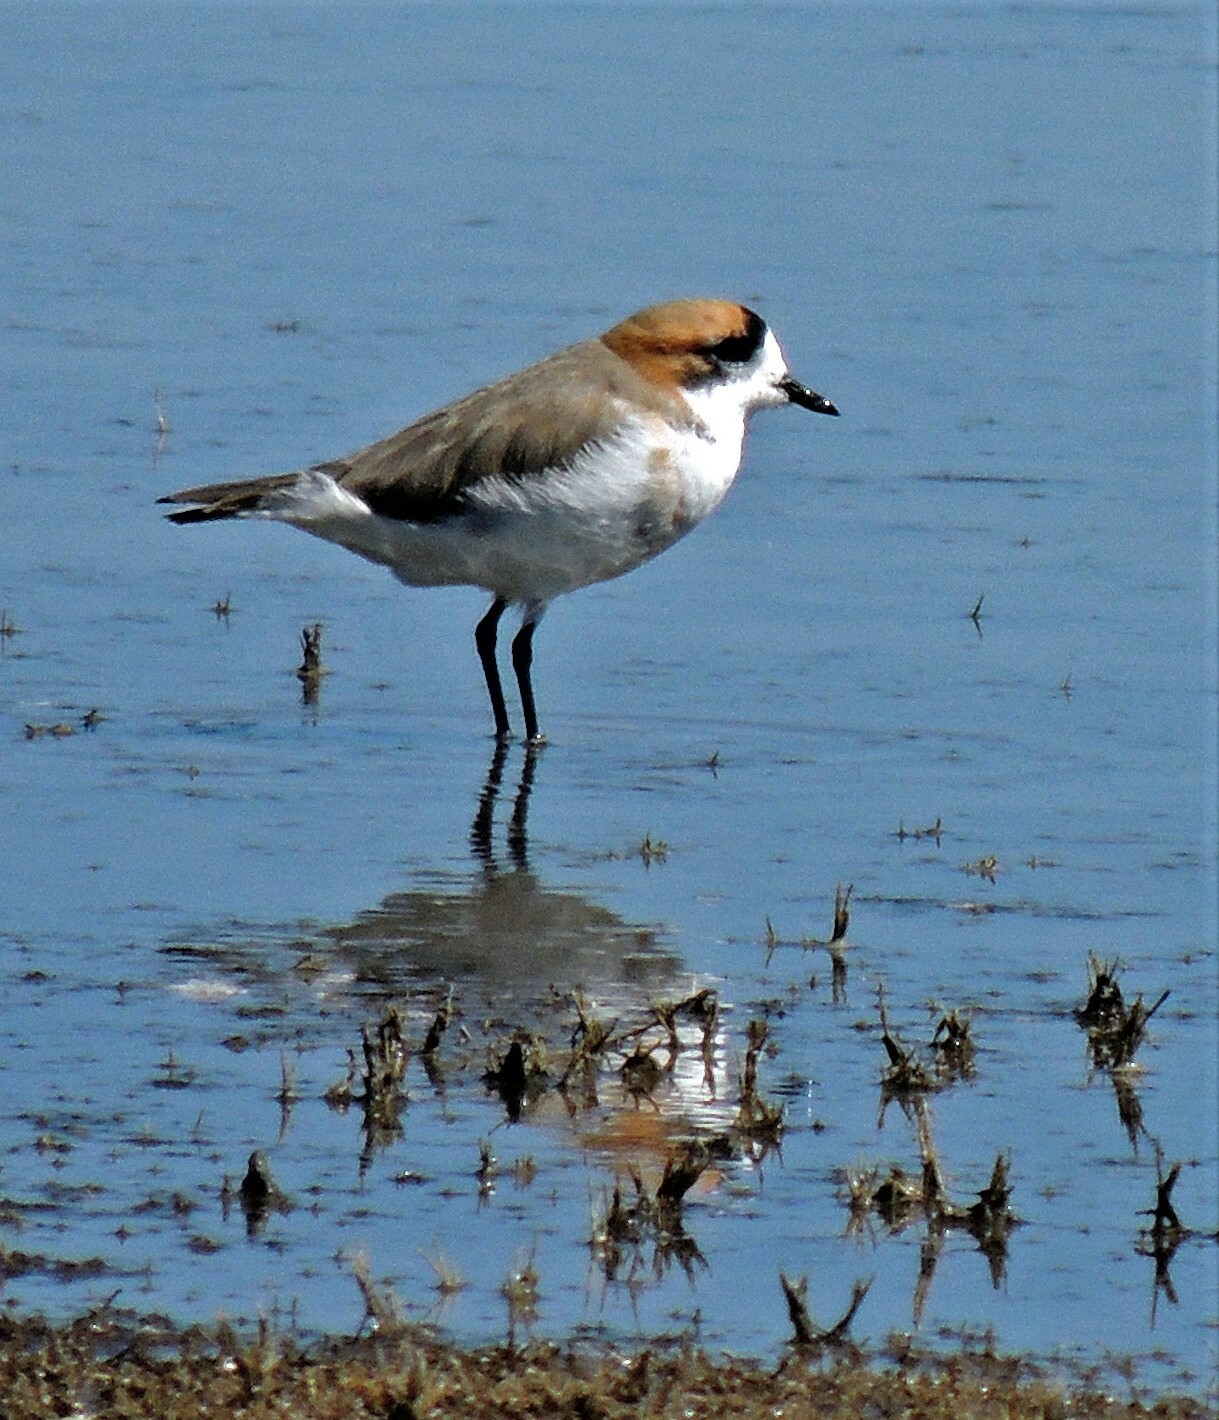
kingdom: Animalia
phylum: Chordata
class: Aves
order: Charadriiformes
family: Charadriidae
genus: Anarhynchus
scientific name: Anarhynchus
